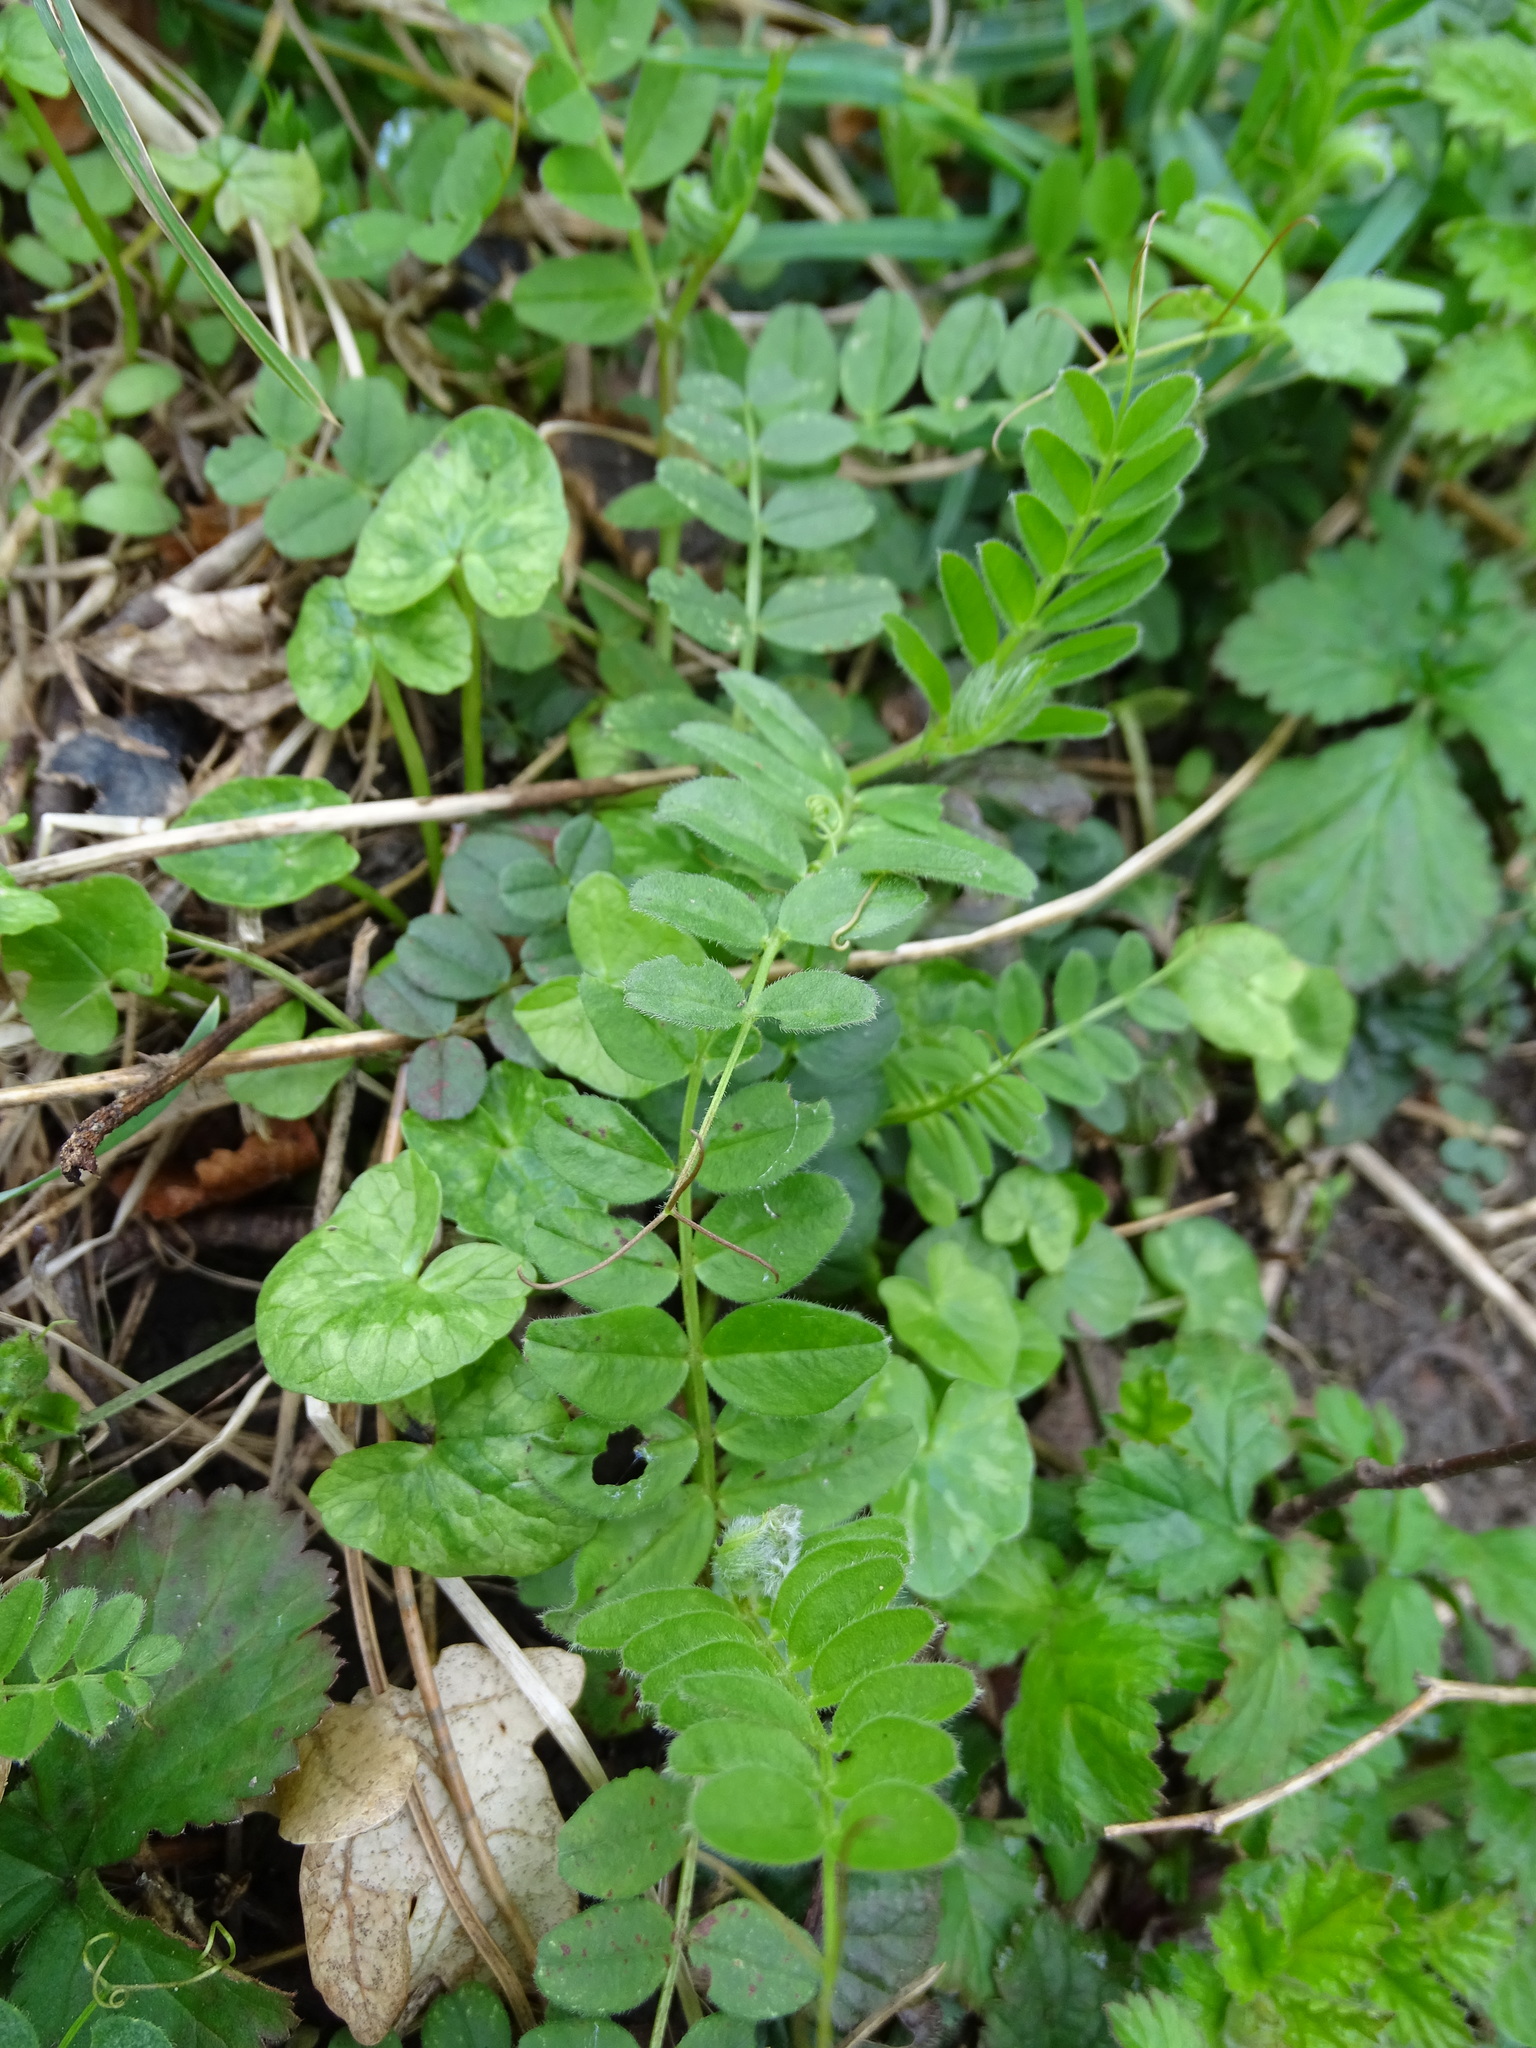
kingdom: Plantae
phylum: Tracheophyta
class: Magnoliopsida
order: Fabales
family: Fabaceae
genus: Vicia
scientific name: Vicia sepium
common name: Bush vetch
